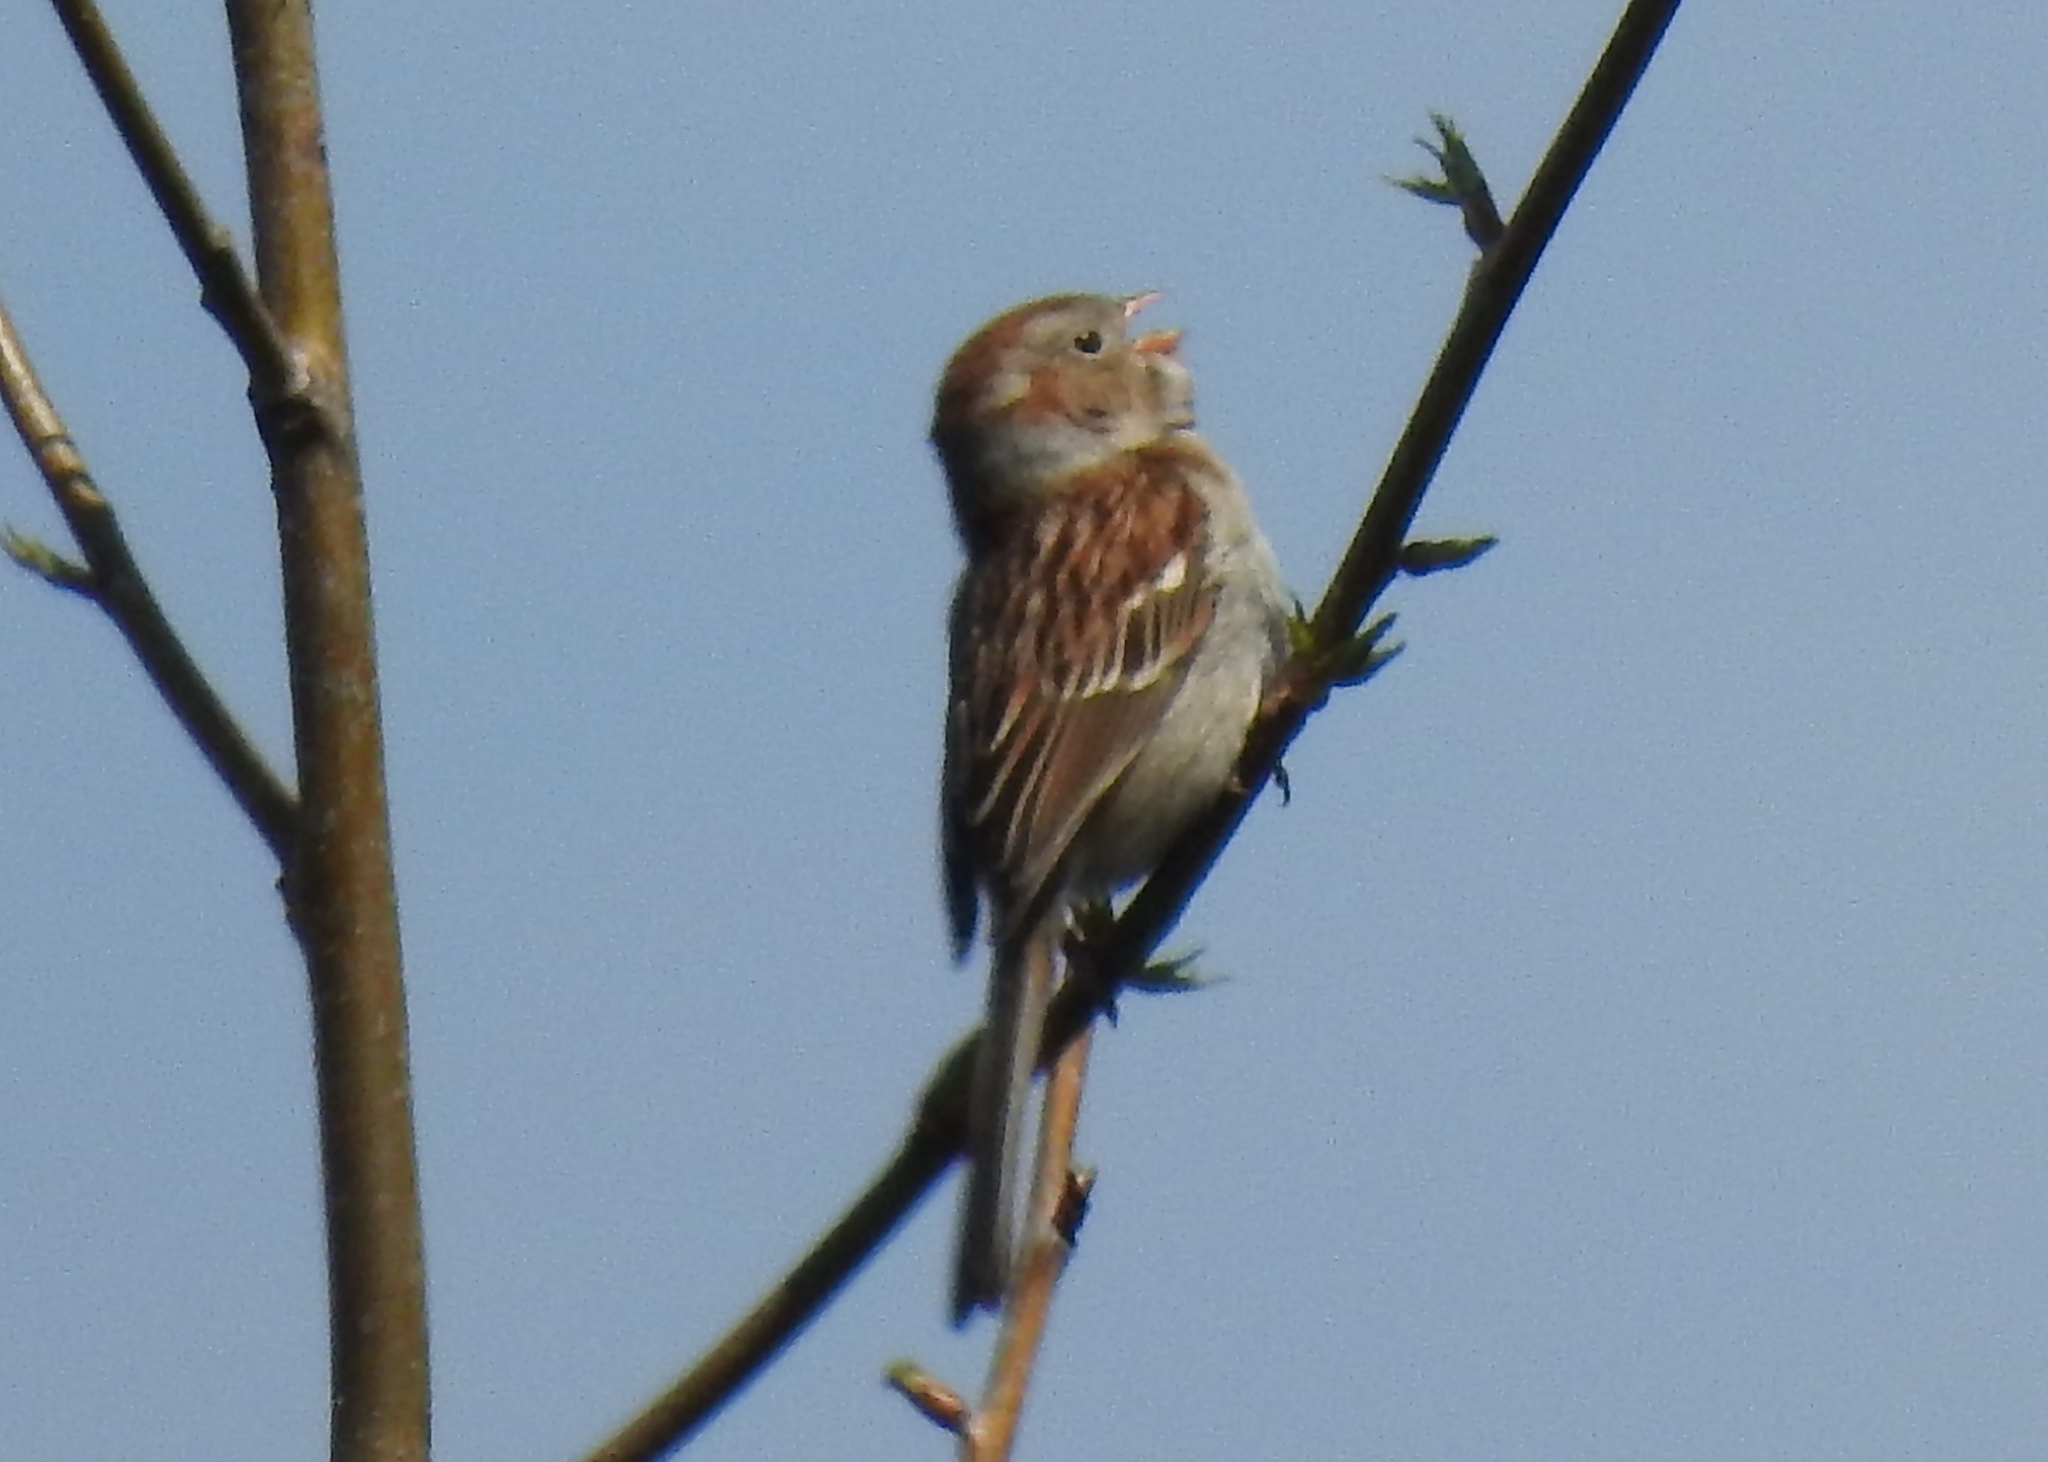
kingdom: Animalia
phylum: Chordata
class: Aves
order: Passeriformes
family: Passerellidae
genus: Spizella
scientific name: Spizella pusilla
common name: Field sparrow
